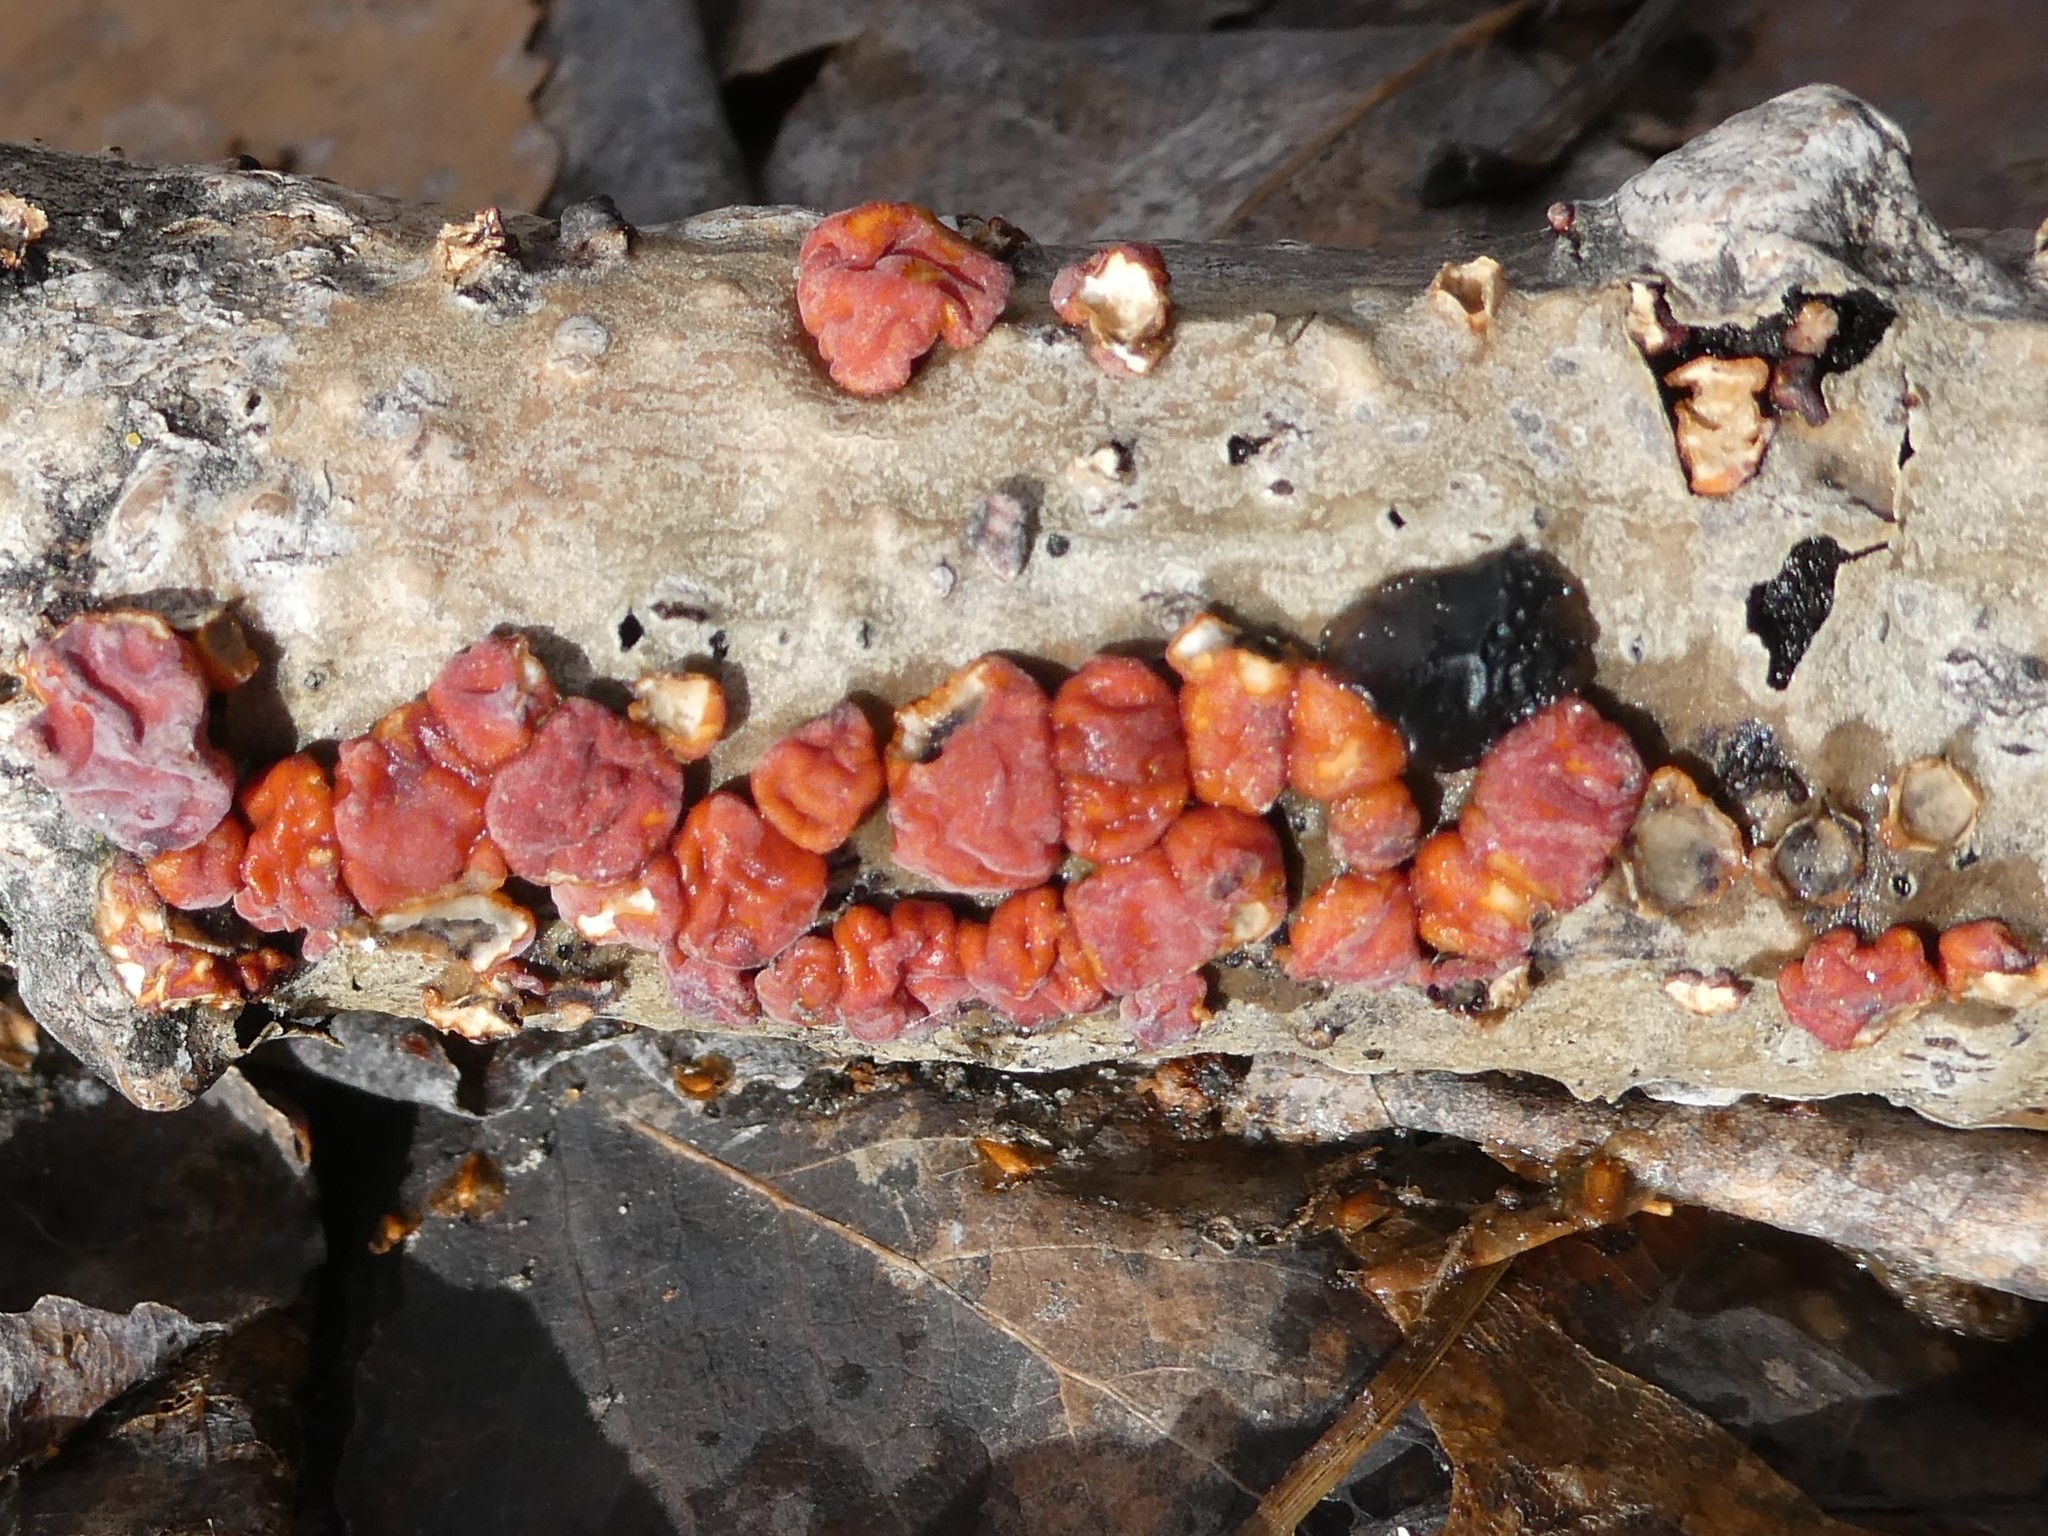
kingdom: Fungi
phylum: Basidiomycota
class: Agaricomycetes
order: Russulales
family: Peniophoraceae
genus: Peniophora
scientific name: Peniophora rufa
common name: Red tree brain fungus
